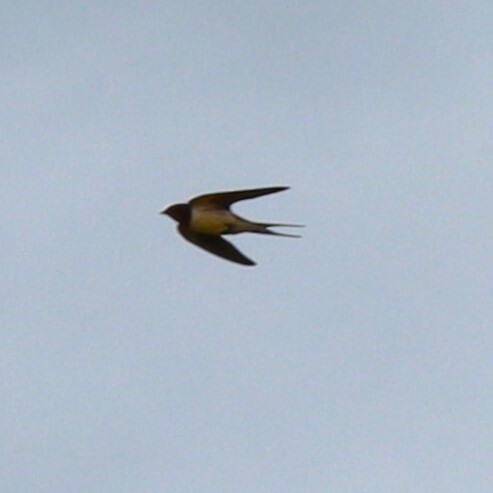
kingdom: Animalia
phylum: Chordata
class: Aves
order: Passeriformes
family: Hirundinidae
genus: Hirundo
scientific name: Hirundo rustica
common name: Barn swallow
